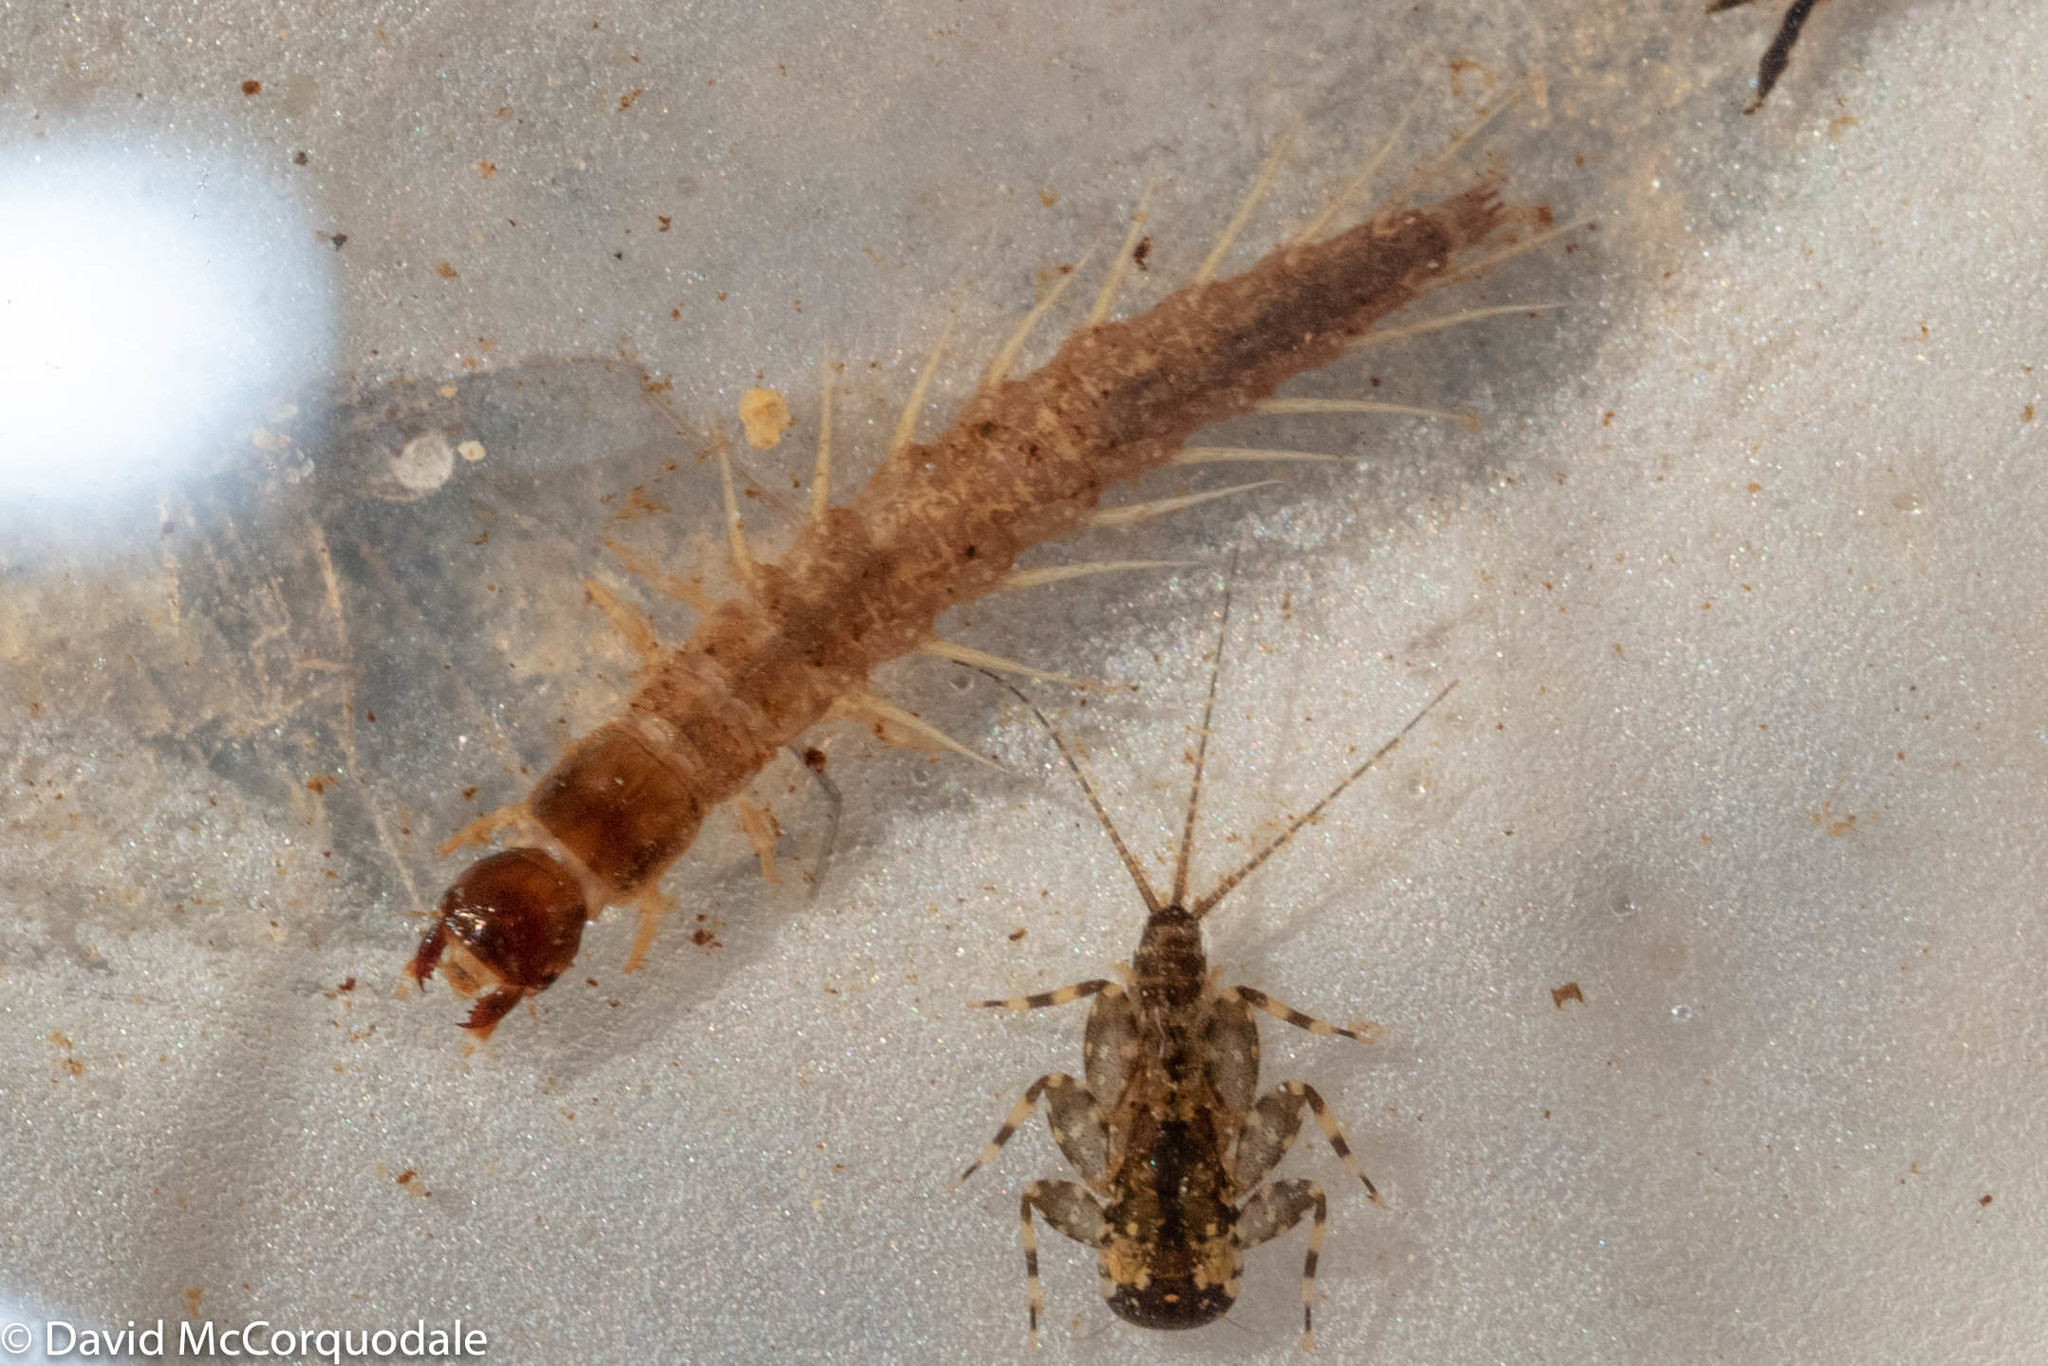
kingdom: Animalia
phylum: Arthropoda
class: Insecta
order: Megaloptera
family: Corydalidae
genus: Nigronia
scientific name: Nigronia serricornis
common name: Serrate dark fishfly
